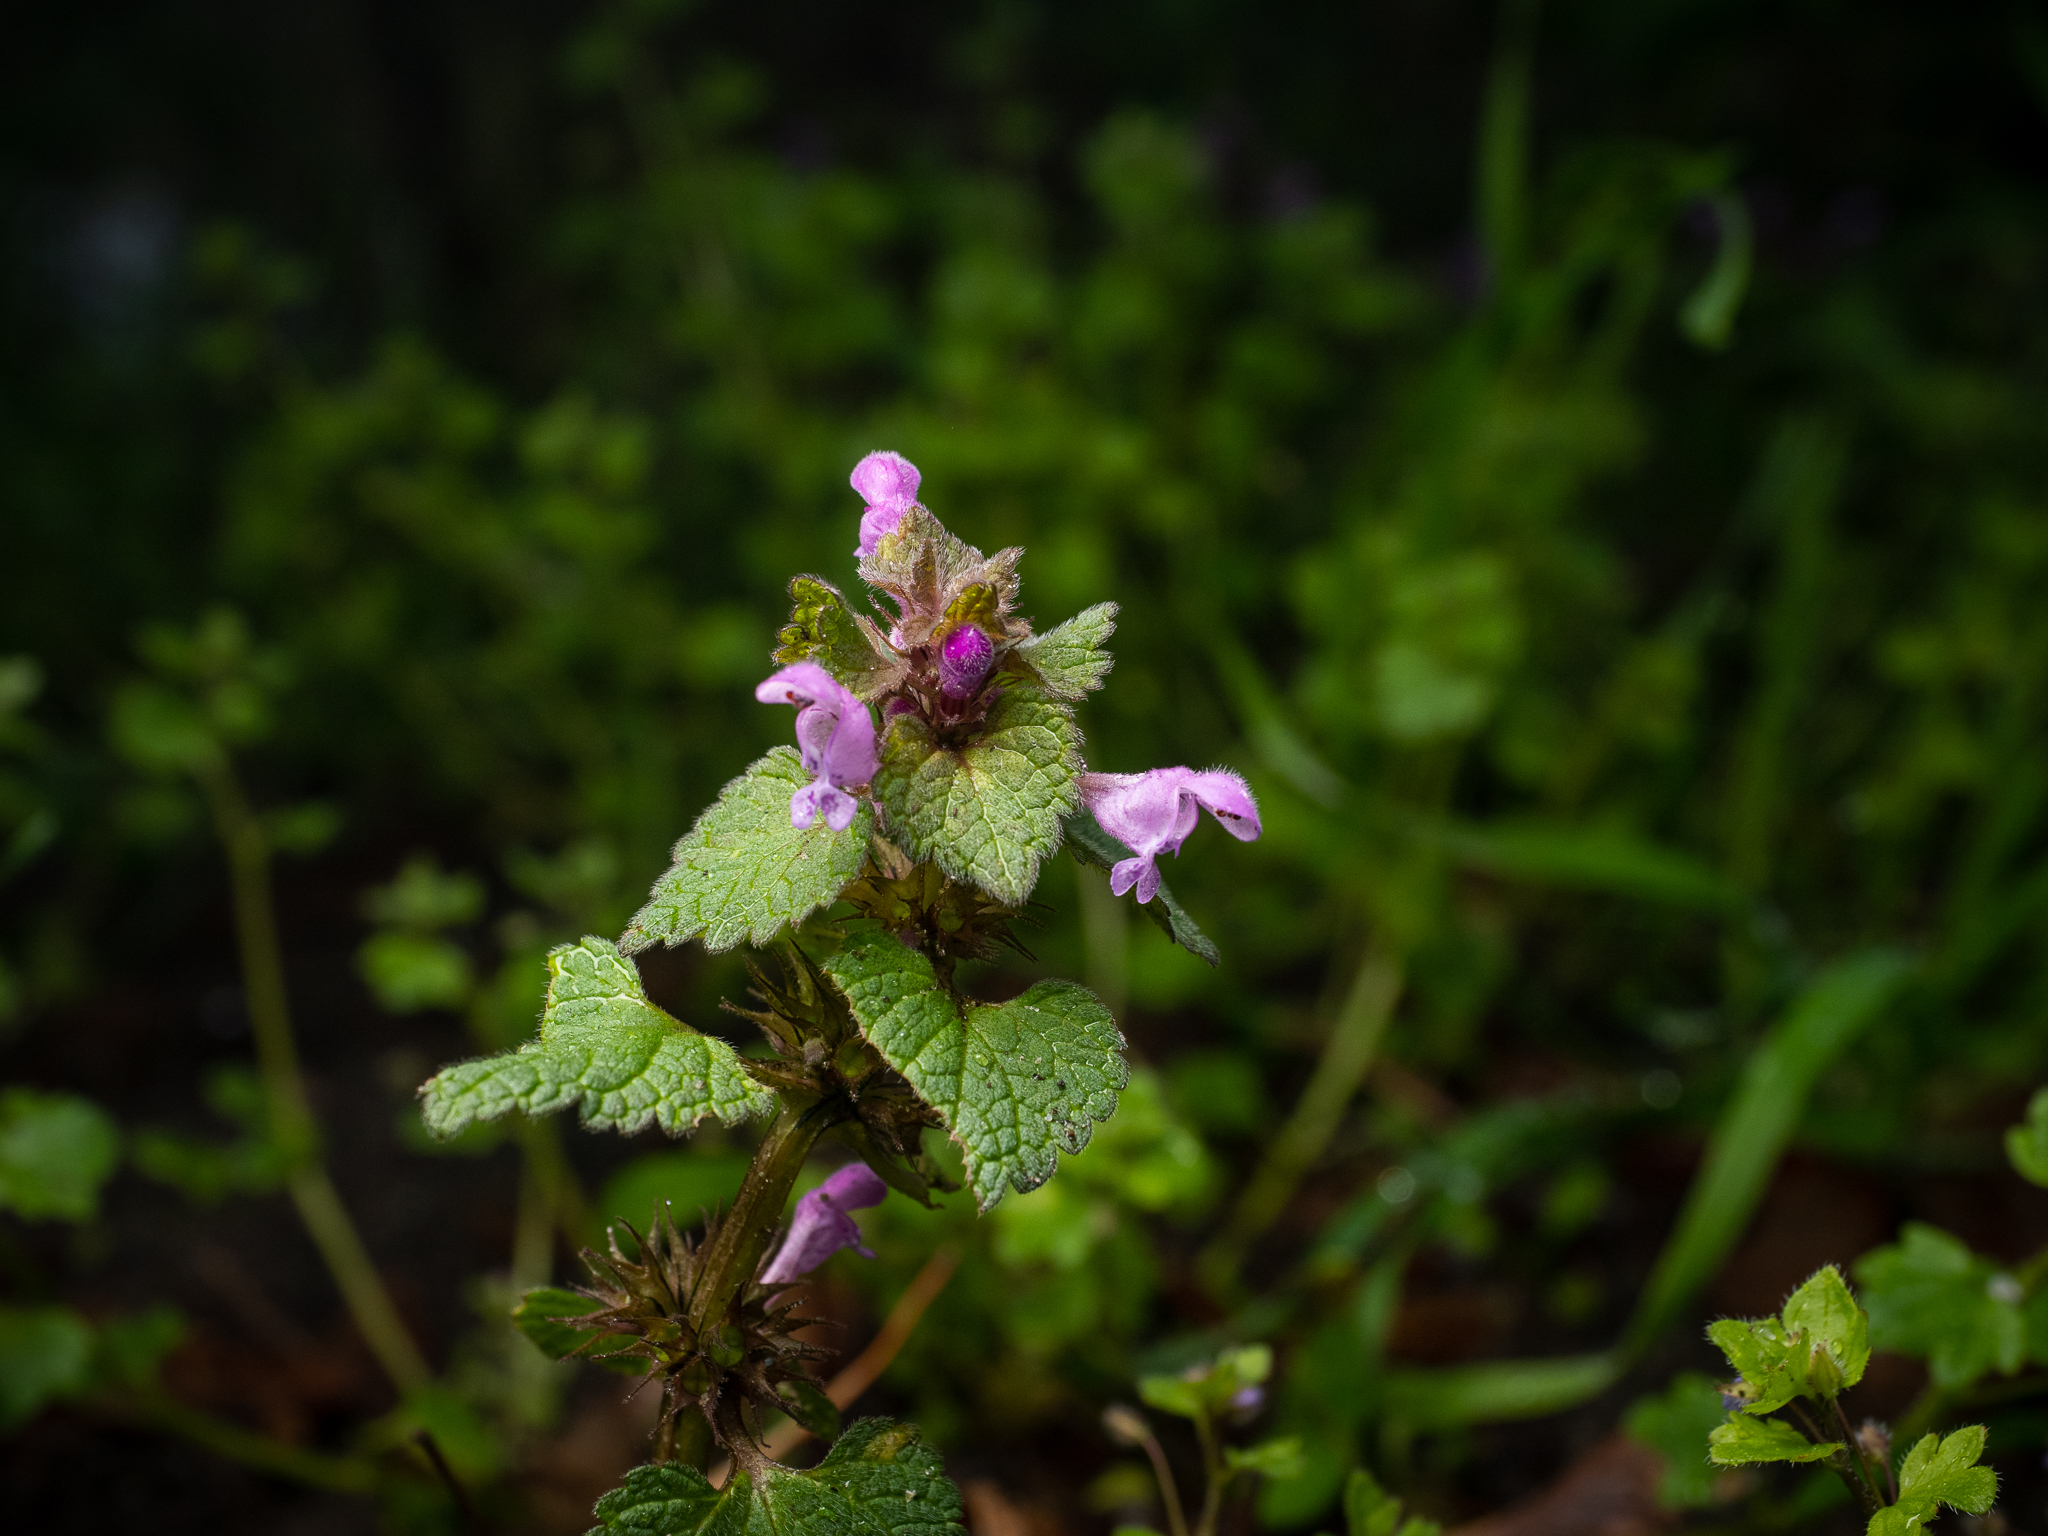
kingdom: Plantae
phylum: Tracheophyta
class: Magnoliopsida
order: Lamiales
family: Lamiaceae
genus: Lamium
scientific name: Lamium purpureum
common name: Red dead-nettle
